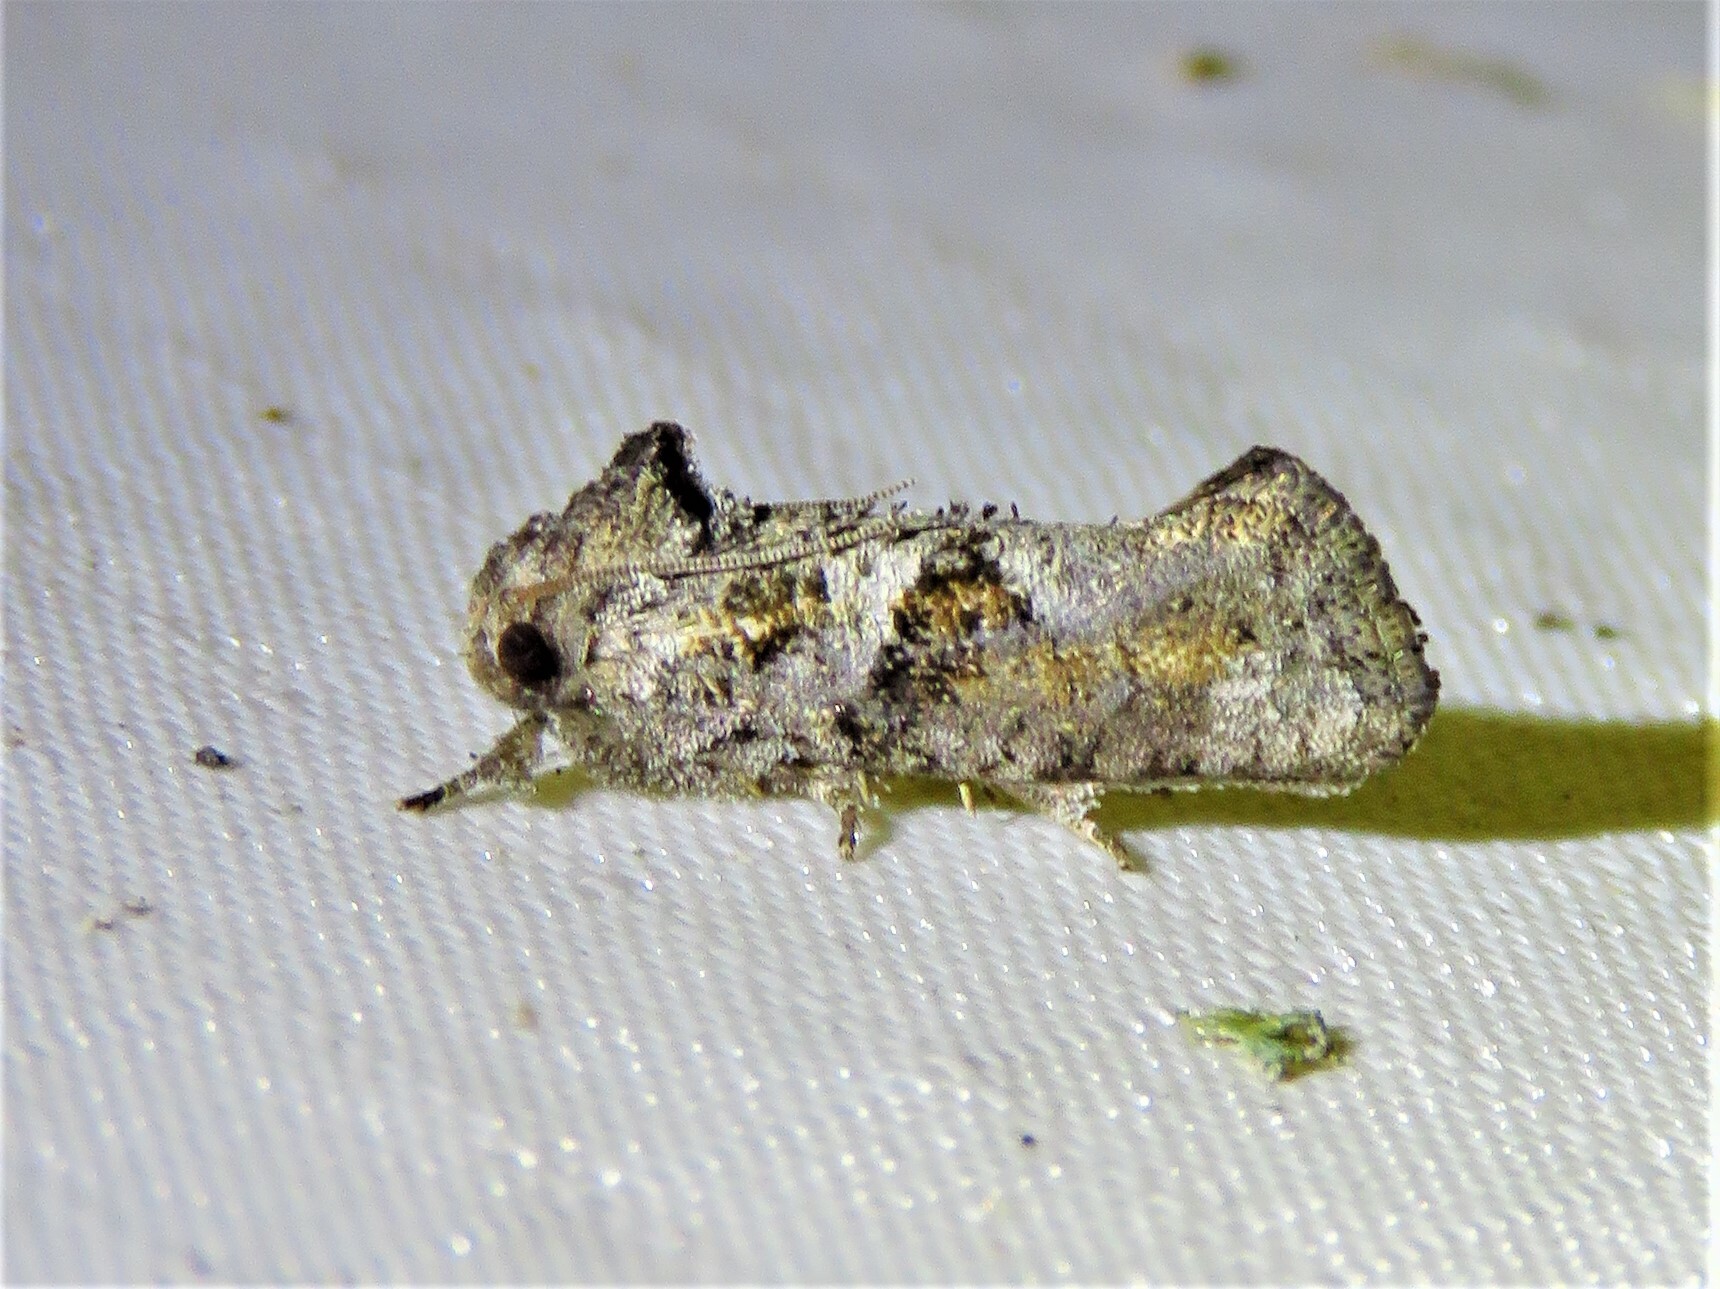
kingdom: Animalia
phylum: Arthropoda
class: Insecta
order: Lepidoptera
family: Tineidae
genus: Acrolophus
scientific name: Acrolophus piger
